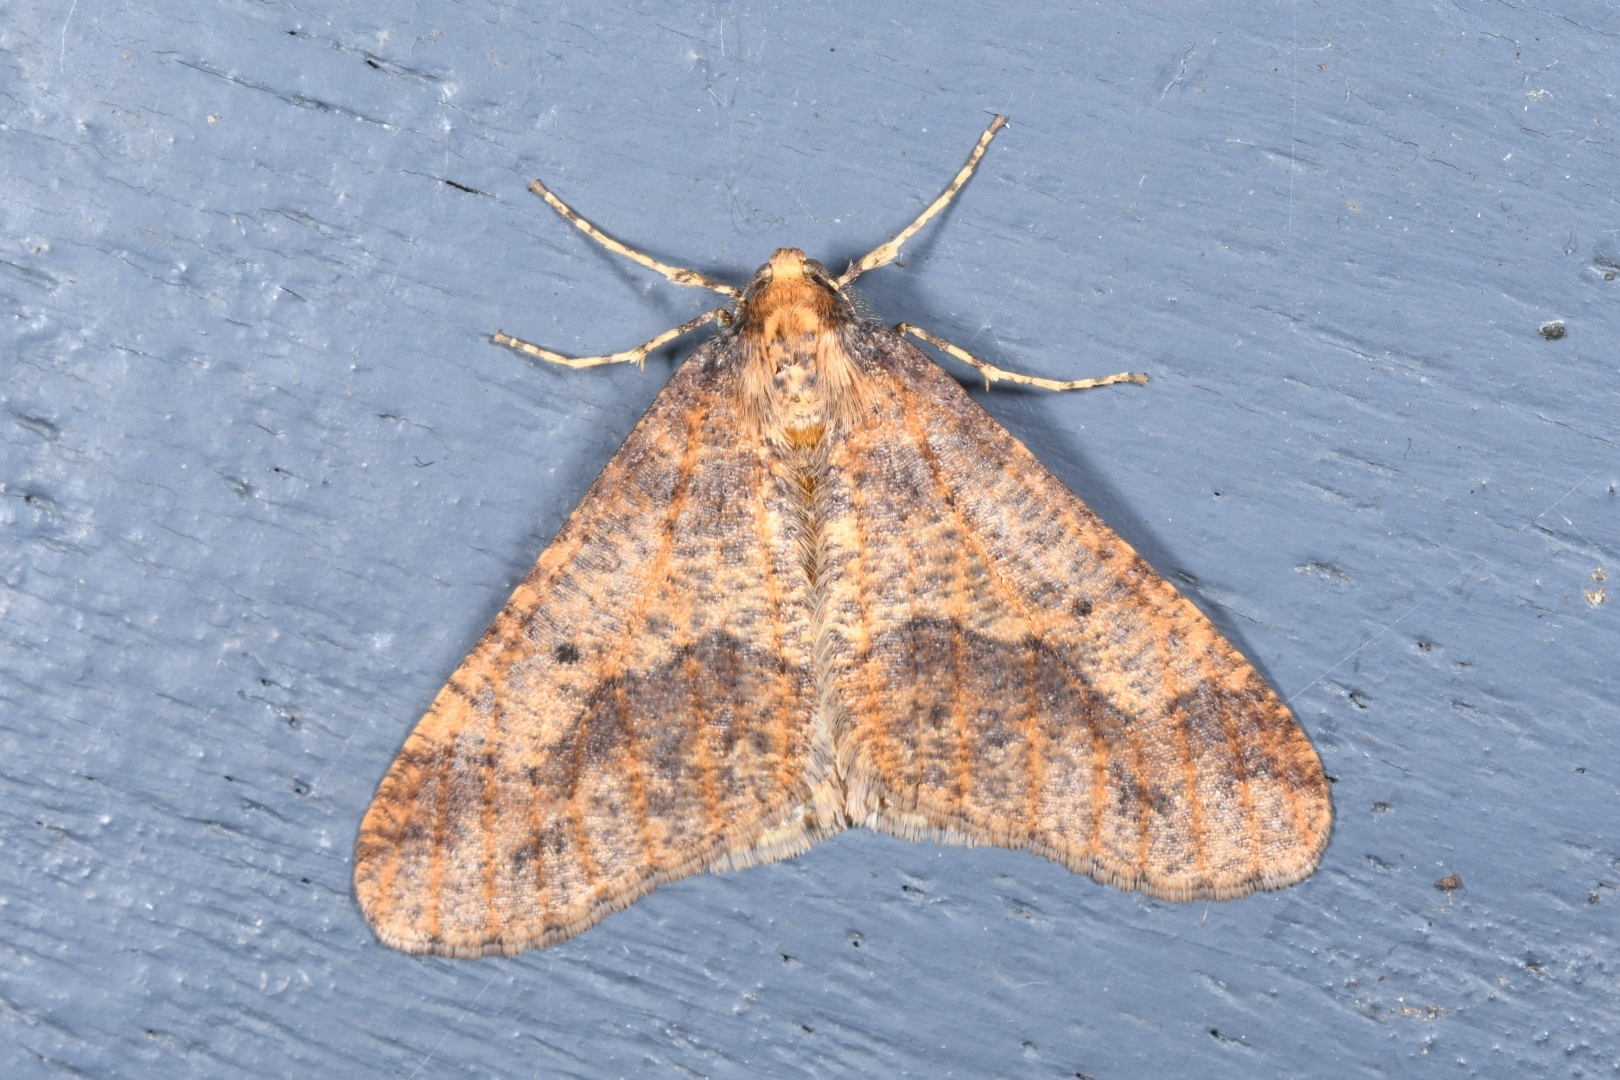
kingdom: Animalia
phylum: Arthropoda
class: Insecta
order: Lepidoptera
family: Geometridae
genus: Erannis
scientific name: Erannis defoliaria
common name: Mottled umber
